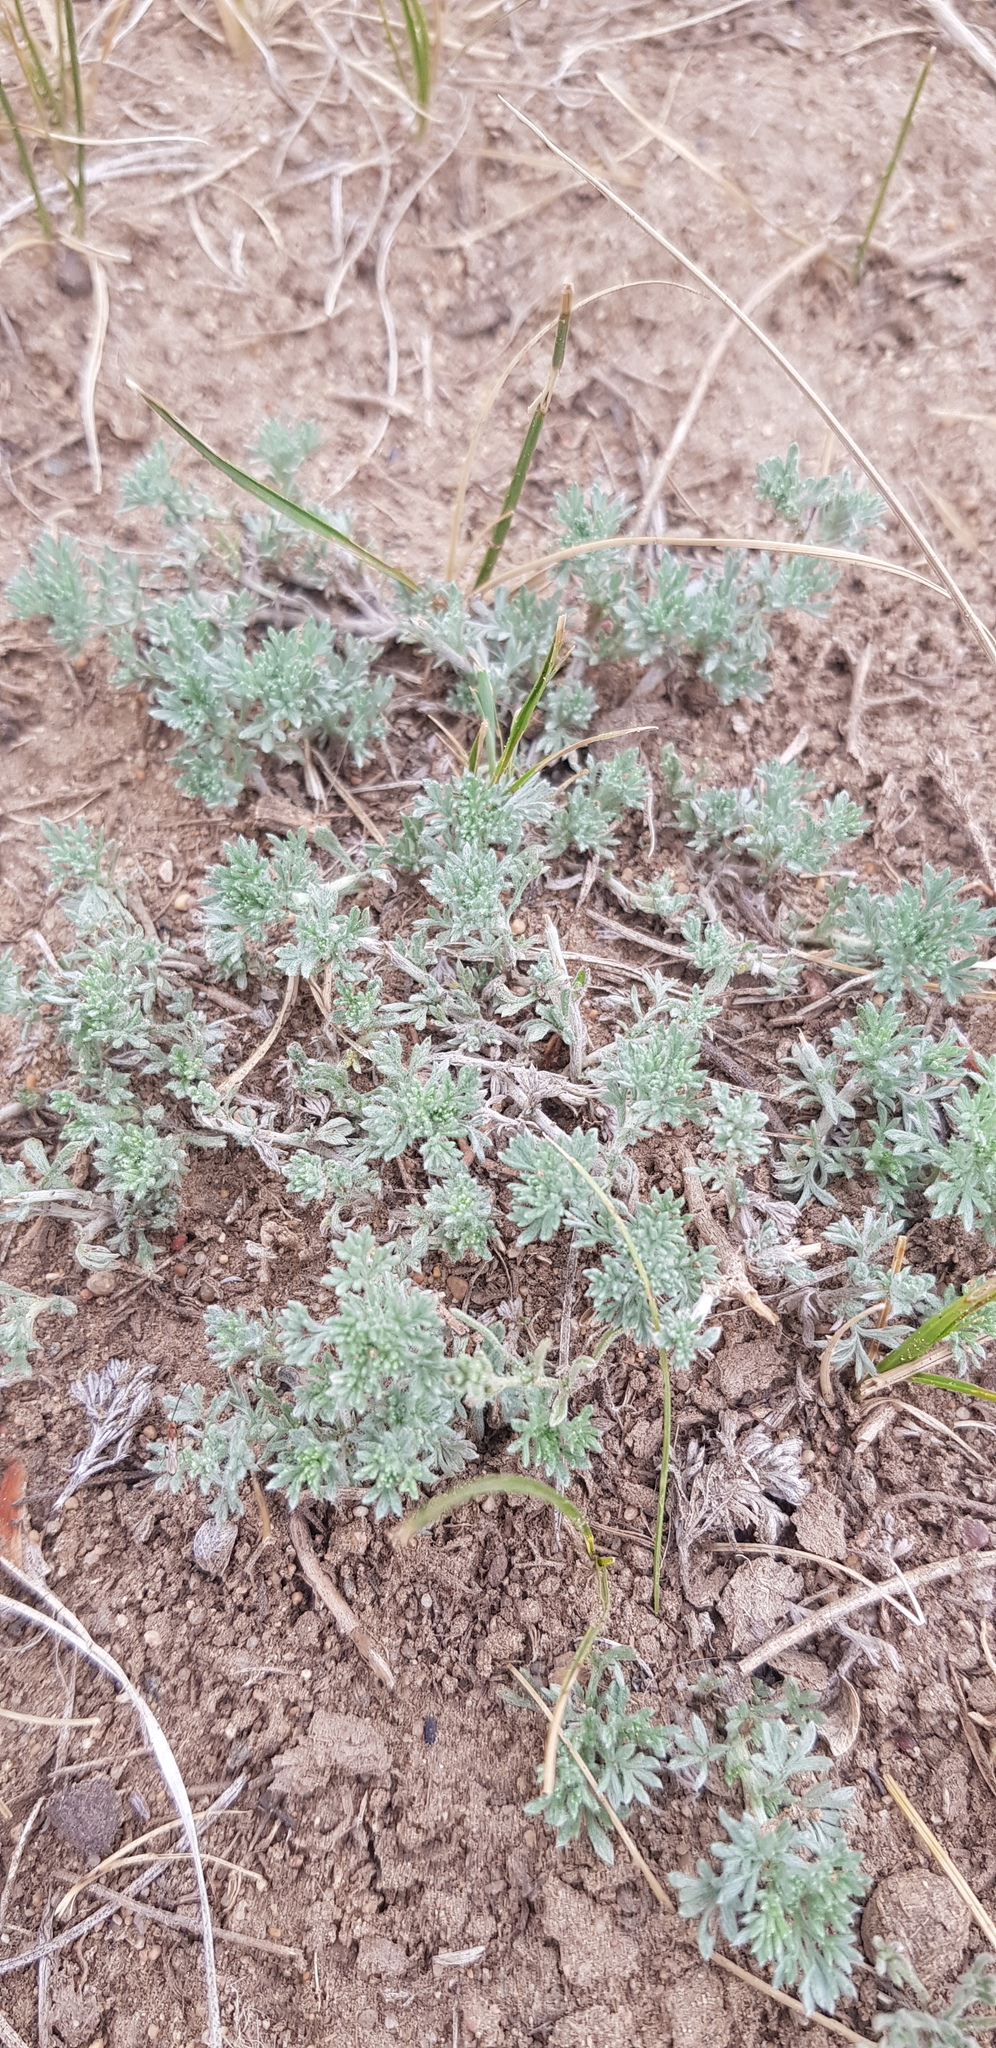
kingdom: Plantae
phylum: Tracheophyta
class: Magnoliopsida
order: Asterales
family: Asteraceae
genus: Artemisia
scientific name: Artemisia frigida
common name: Prairie sagewort
